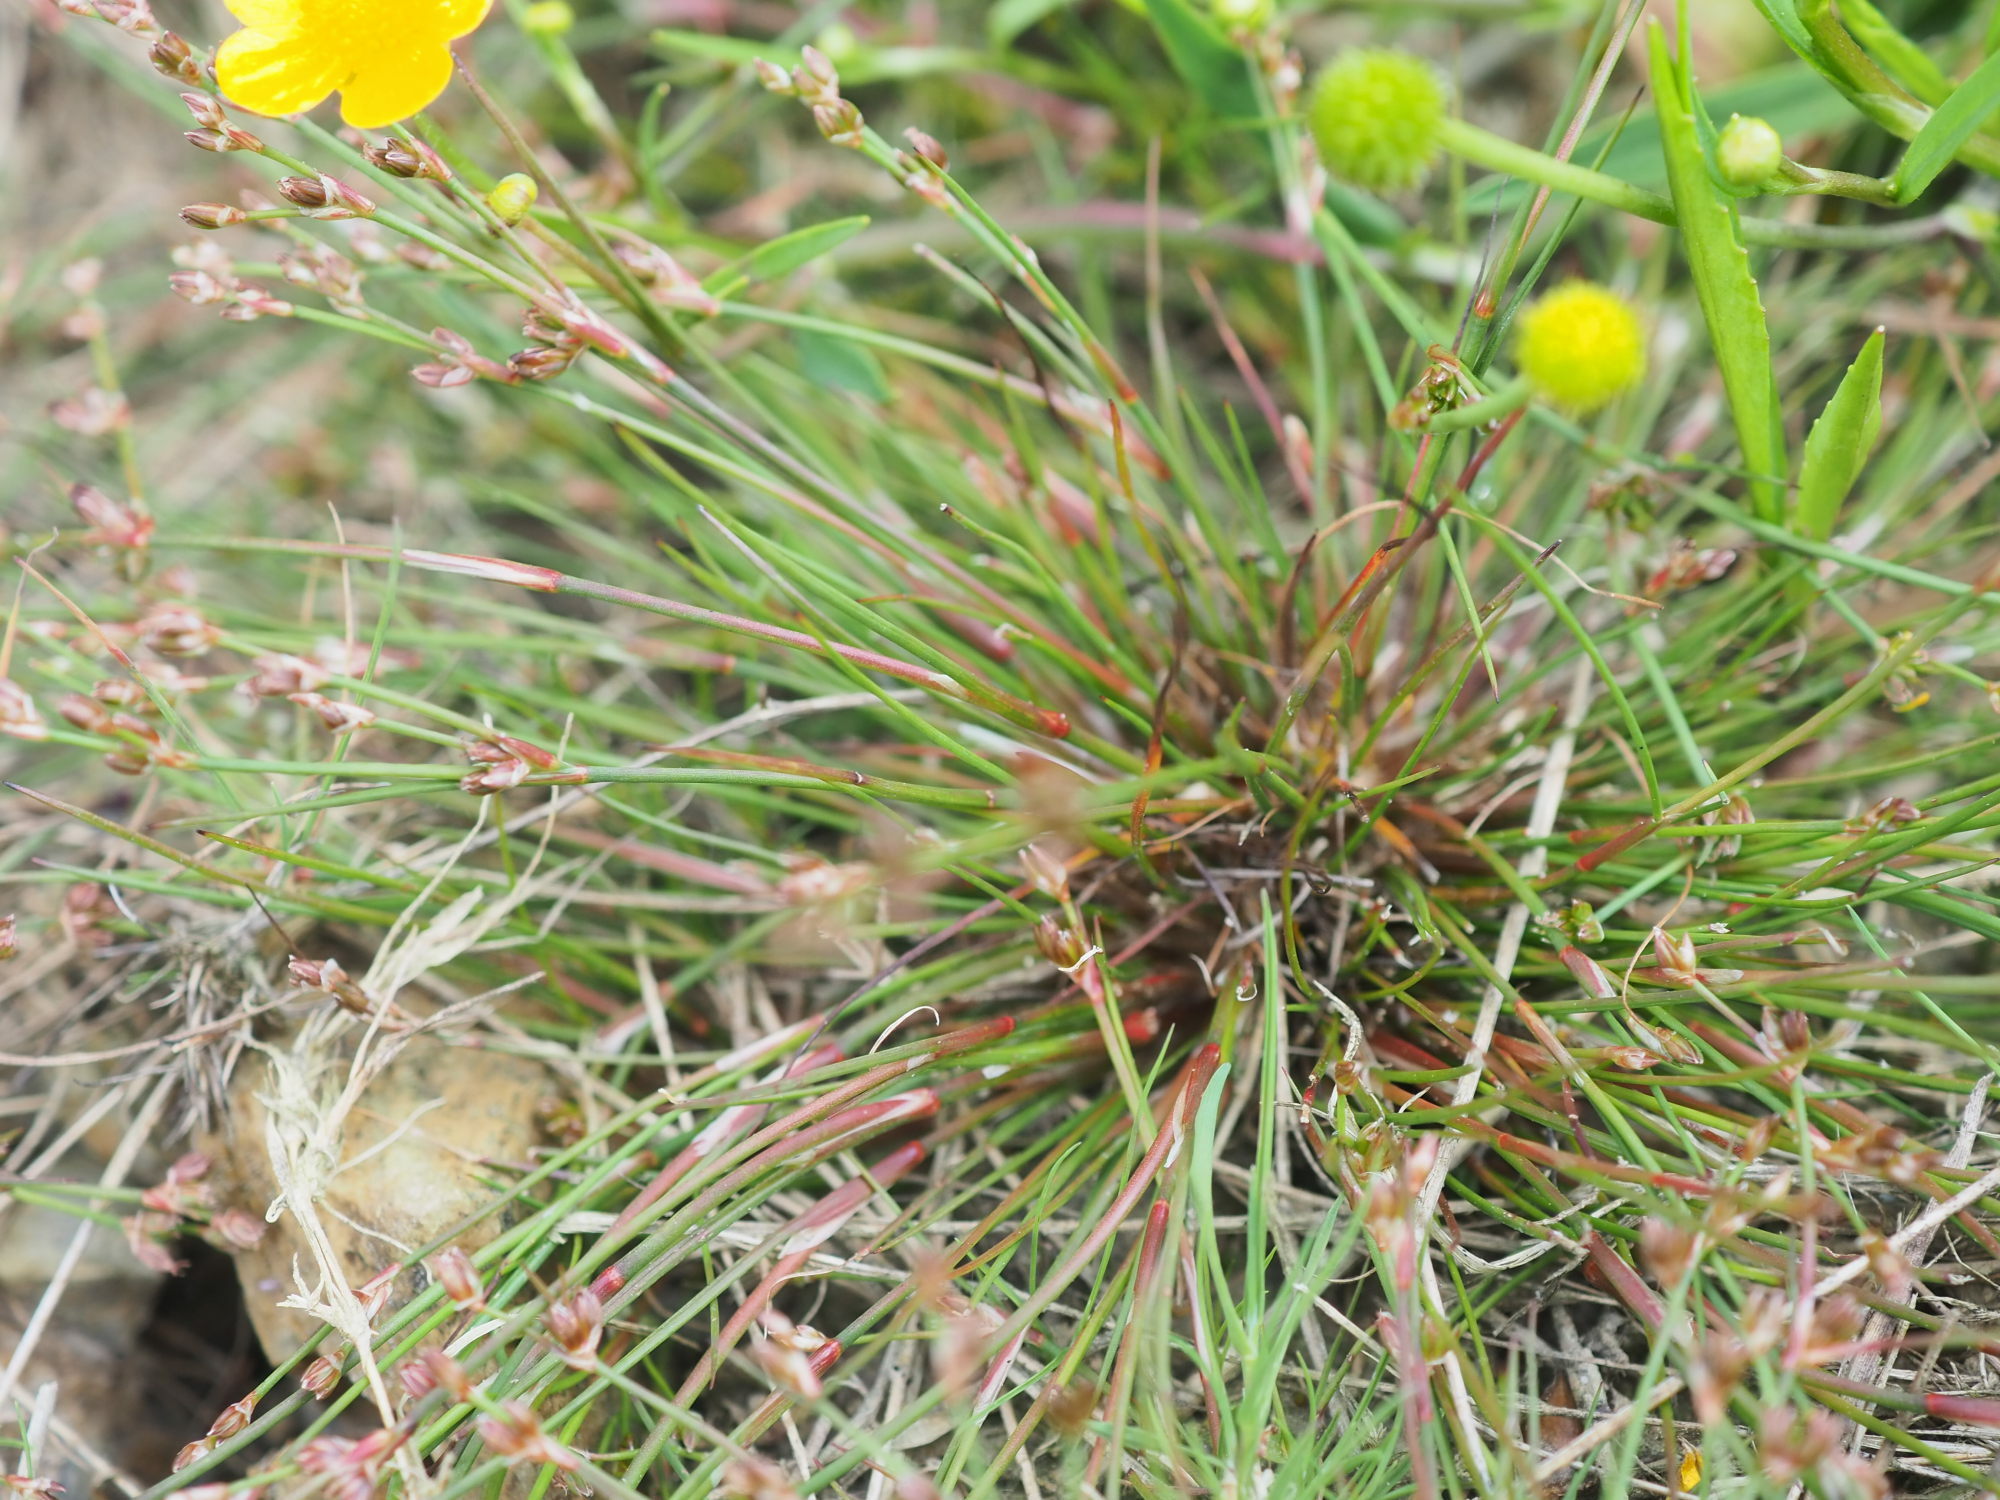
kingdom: Plantae
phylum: Tracheophyta
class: Liliopsida
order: Poales
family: Juncaceae
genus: Juncus
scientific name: Juncus bulbosus
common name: Bulbous rush
